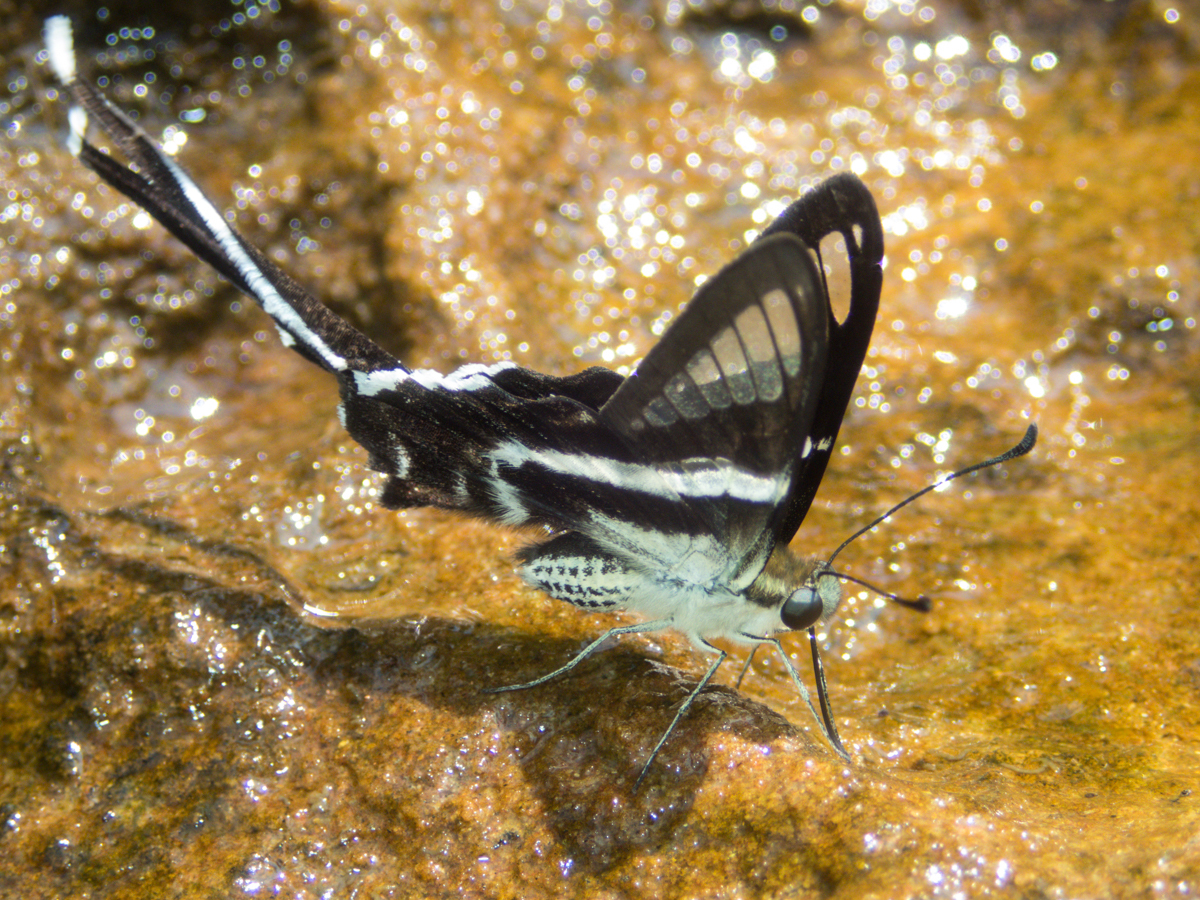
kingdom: Animalia
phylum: Arthropoda
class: Insecta
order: Lepidoptera
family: Papilionidae
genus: Lamproptera
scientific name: Lamproptera curius
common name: White dragontail
